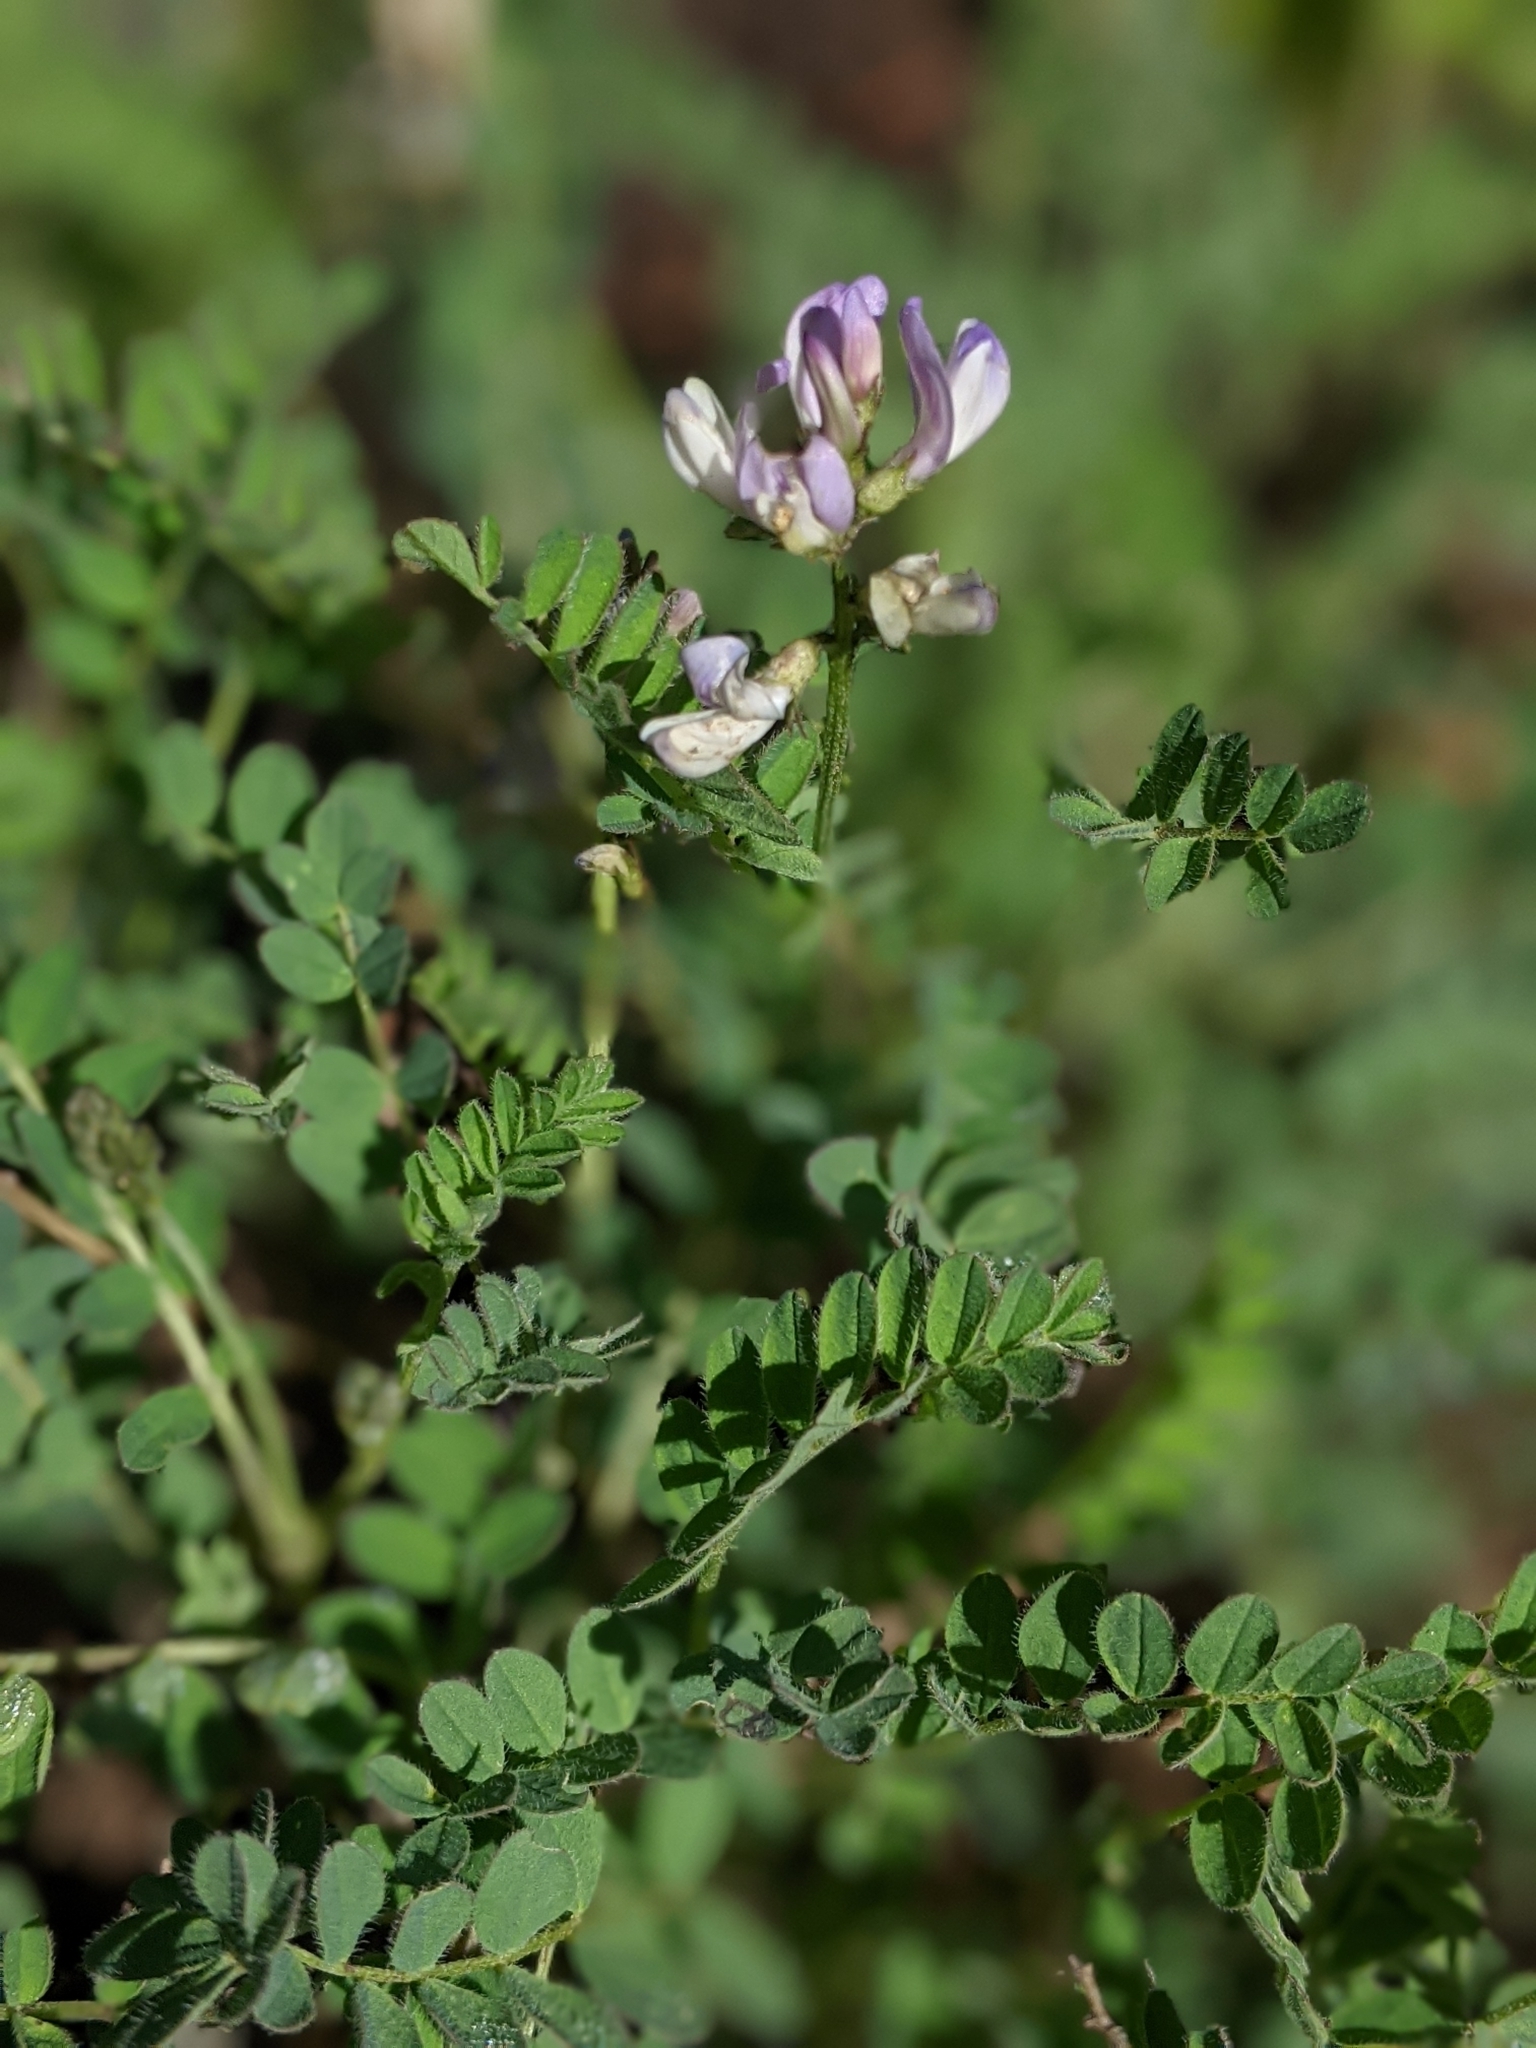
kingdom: Plantae
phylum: Tracheophyta
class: Magnoliopsida
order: Fabales
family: Fabaceae
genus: Astragalus
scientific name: Astragalus alpinus
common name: Alpine milk-vetch
